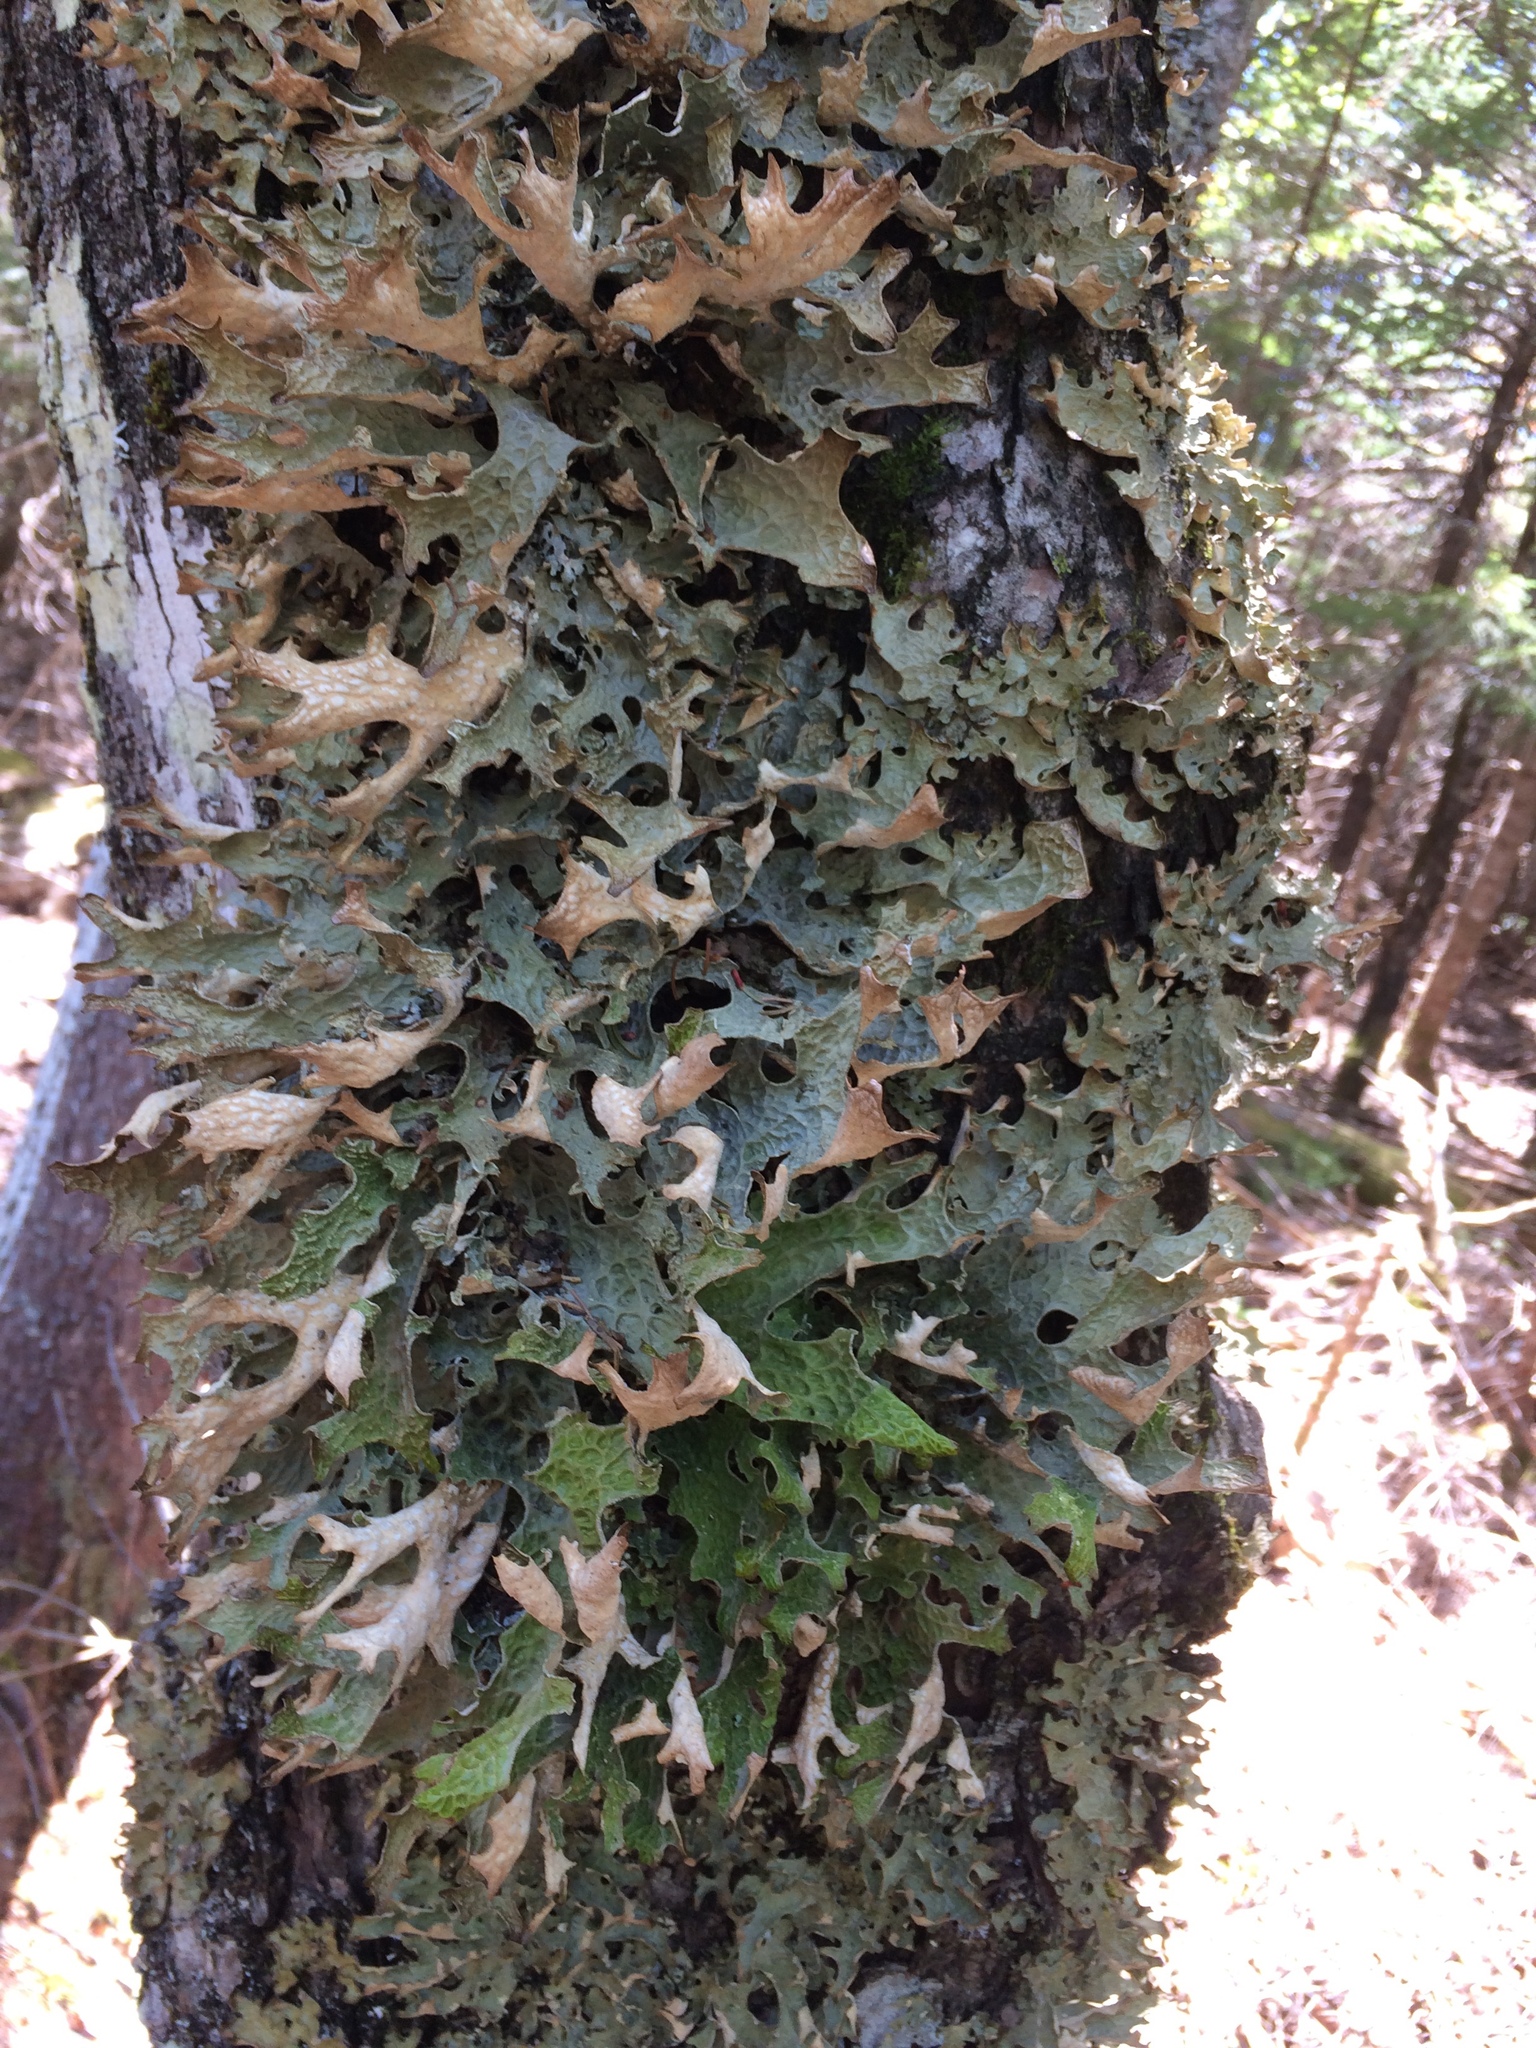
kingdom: Fungi
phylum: Ascomycota
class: Lecanoromycetes
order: Peltigerales
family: Lobariaceae
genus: Lobaria
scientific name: Lobaria pulmonaria
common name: Lungwort
